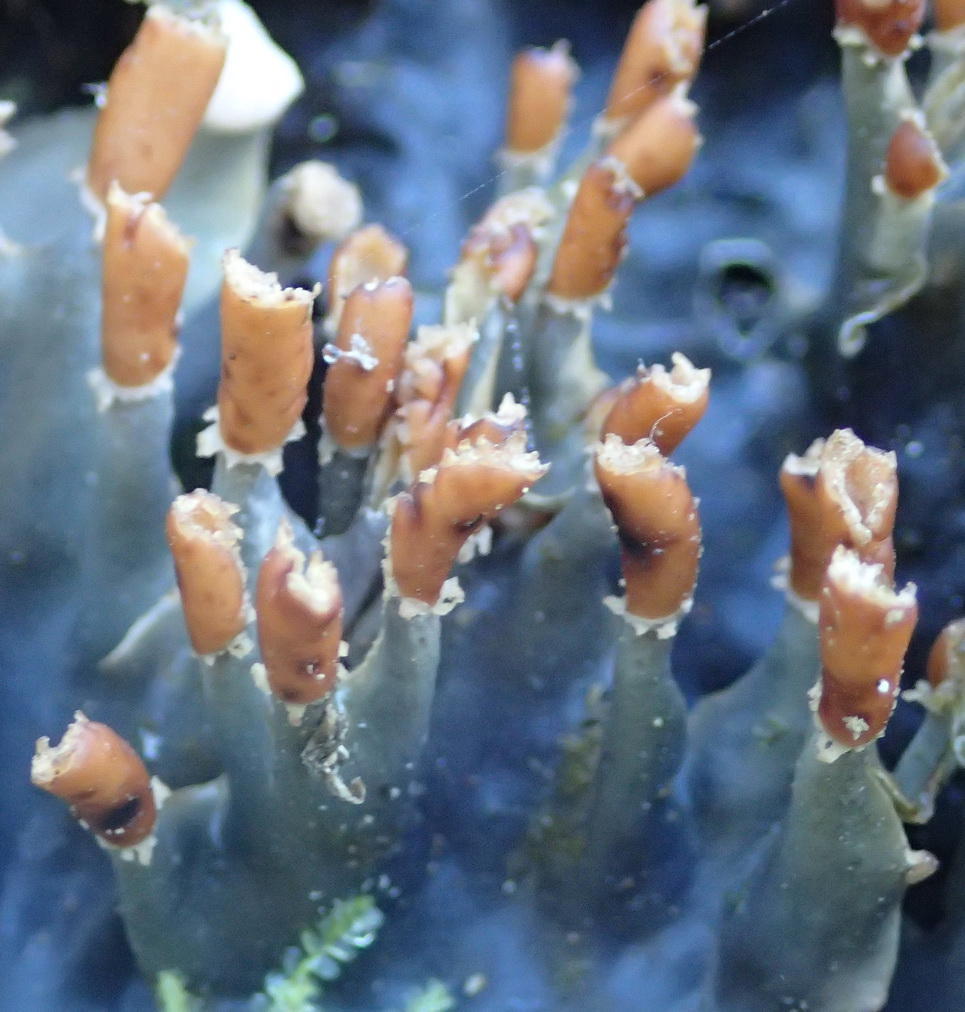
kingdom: Fungi
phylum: Ascomycota
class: Lecanoromycetes
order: Peltigerales
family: Peltigeraceae
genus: Peltigera
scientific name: Peltigera dolichorhiza
